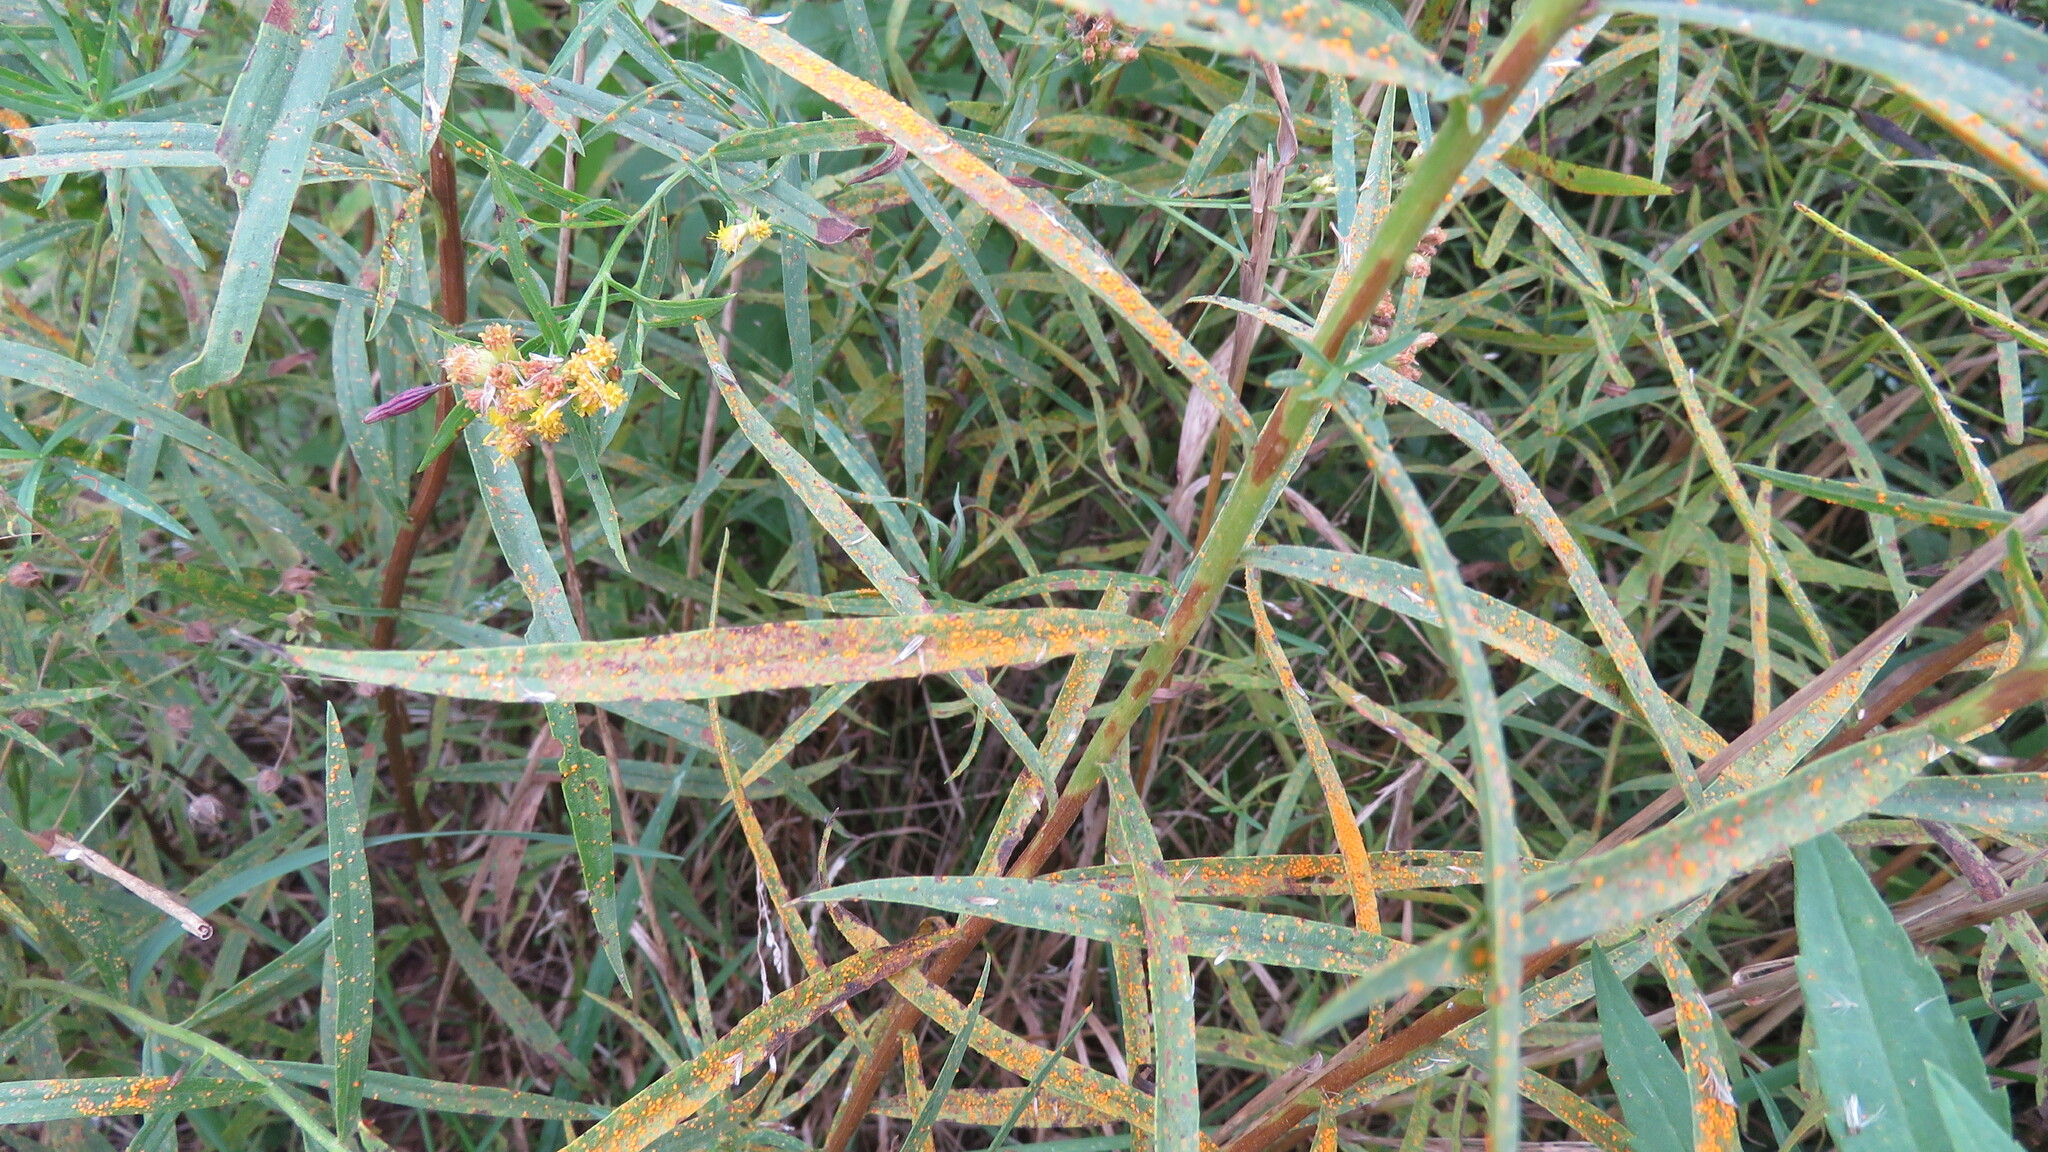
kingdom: Fungi
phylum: Basidiomycota
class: Pucciniomycetes
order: Pucciniales
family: Coleosporiaceae
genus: Coleosporium
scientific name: Coleosporium asterum
